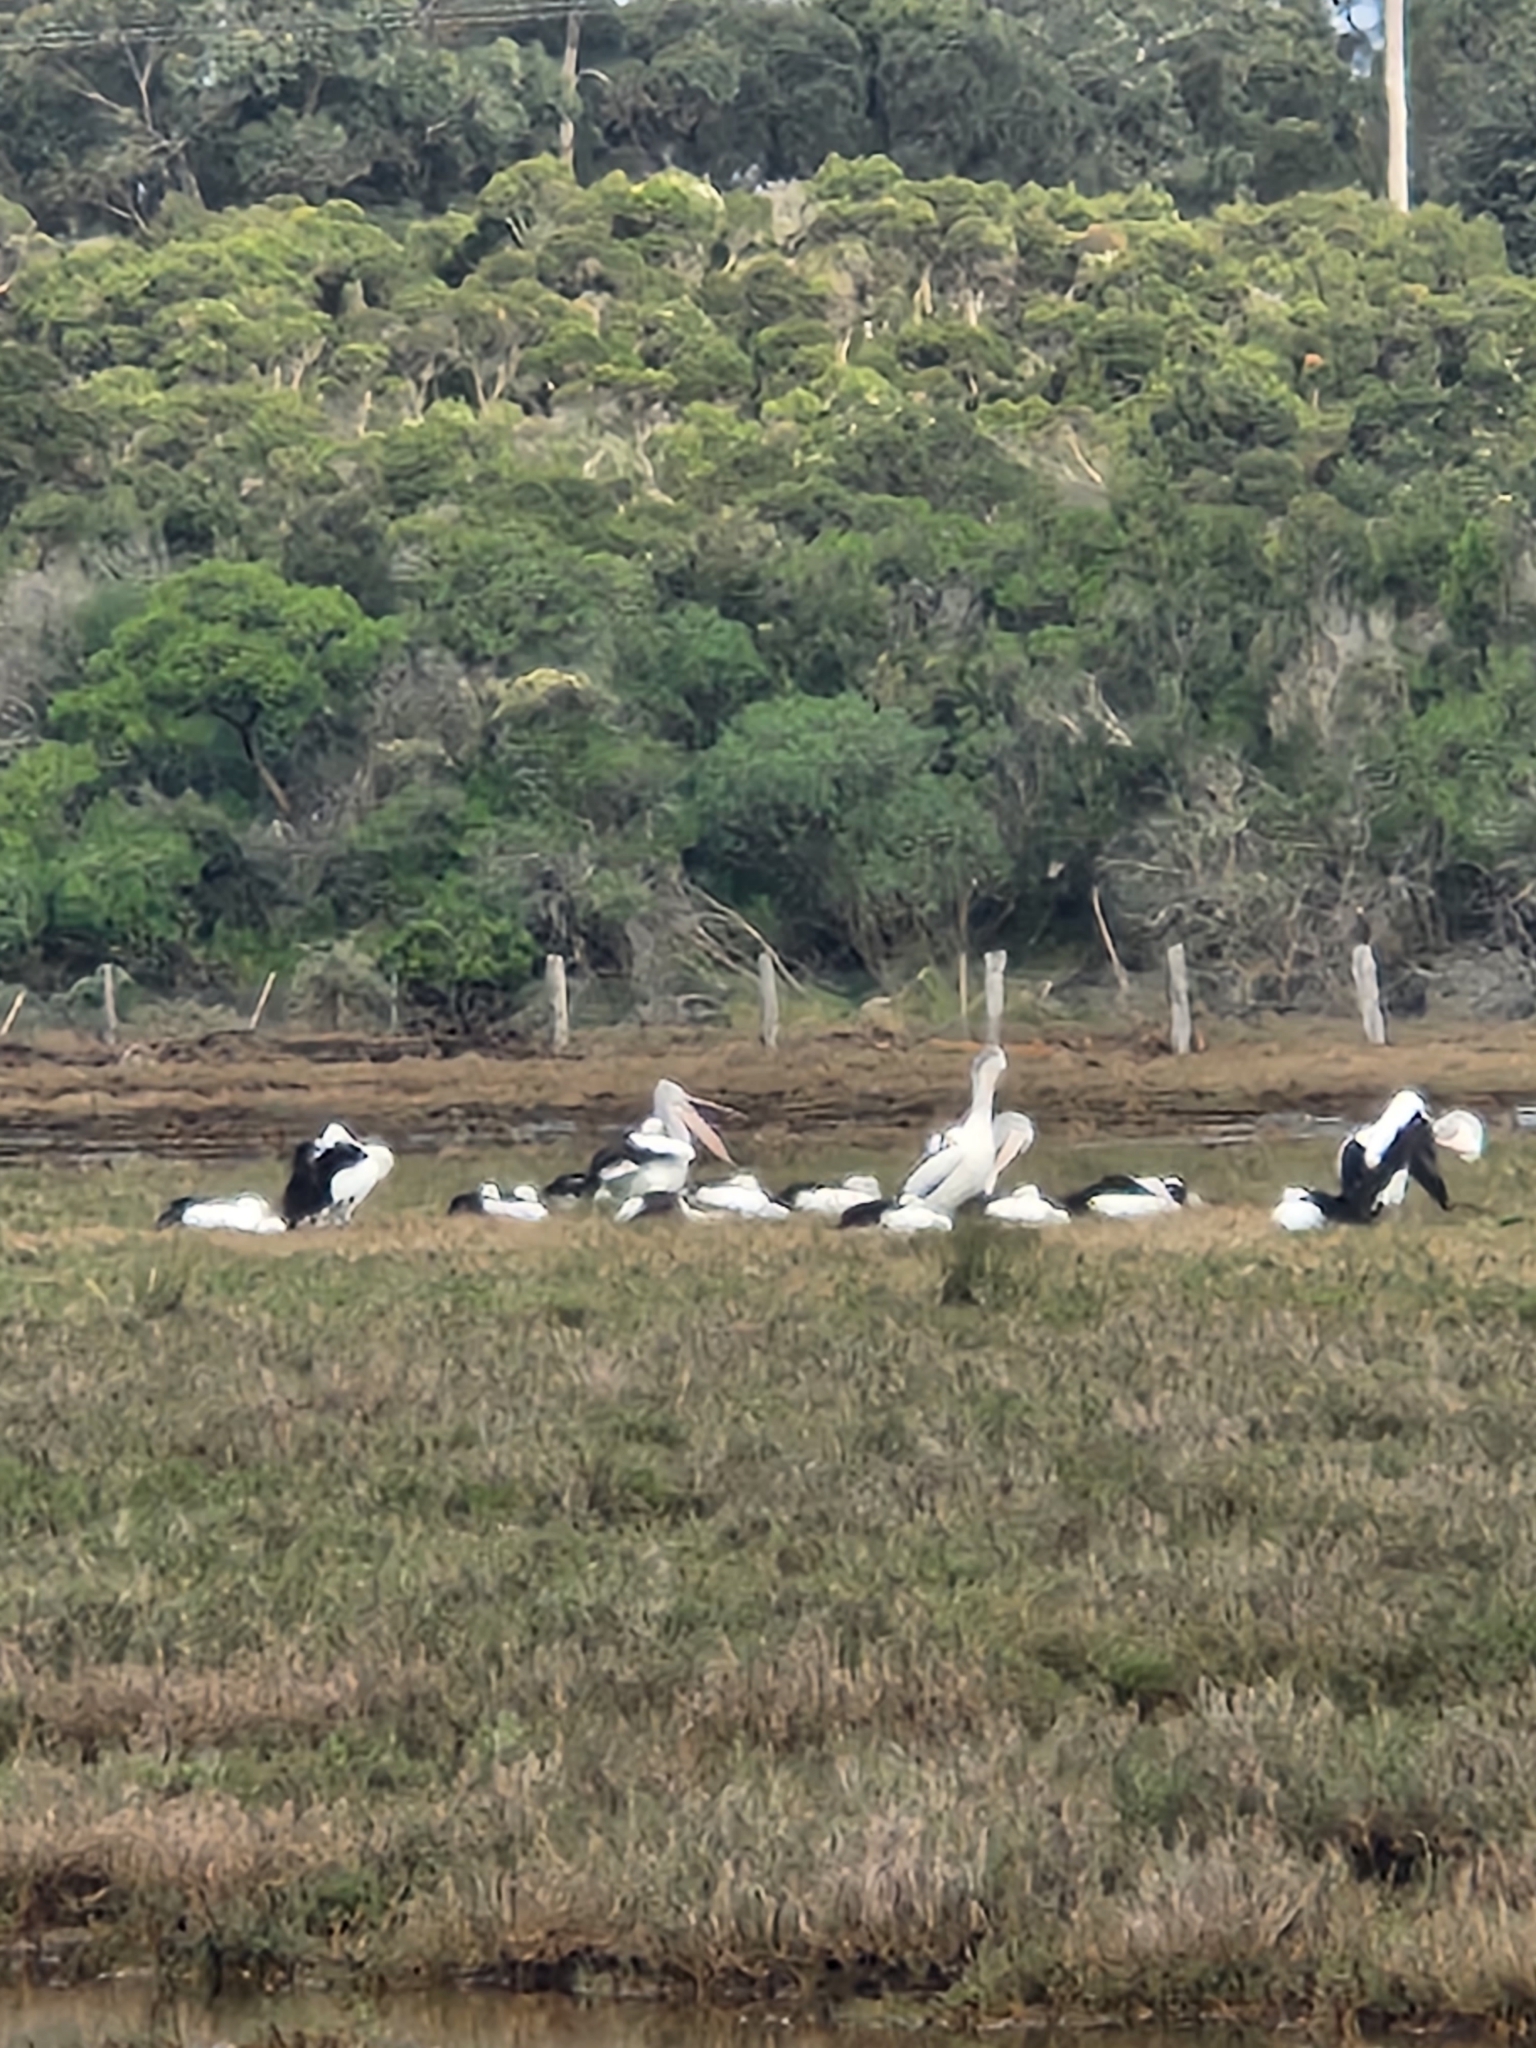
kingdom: Animalia
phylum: Chordata
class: Aves
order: Pelecaniformes
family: Pelecanidae
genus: Pelecanus
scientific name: Pelecanus conspicillatus
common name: Australian pelican
